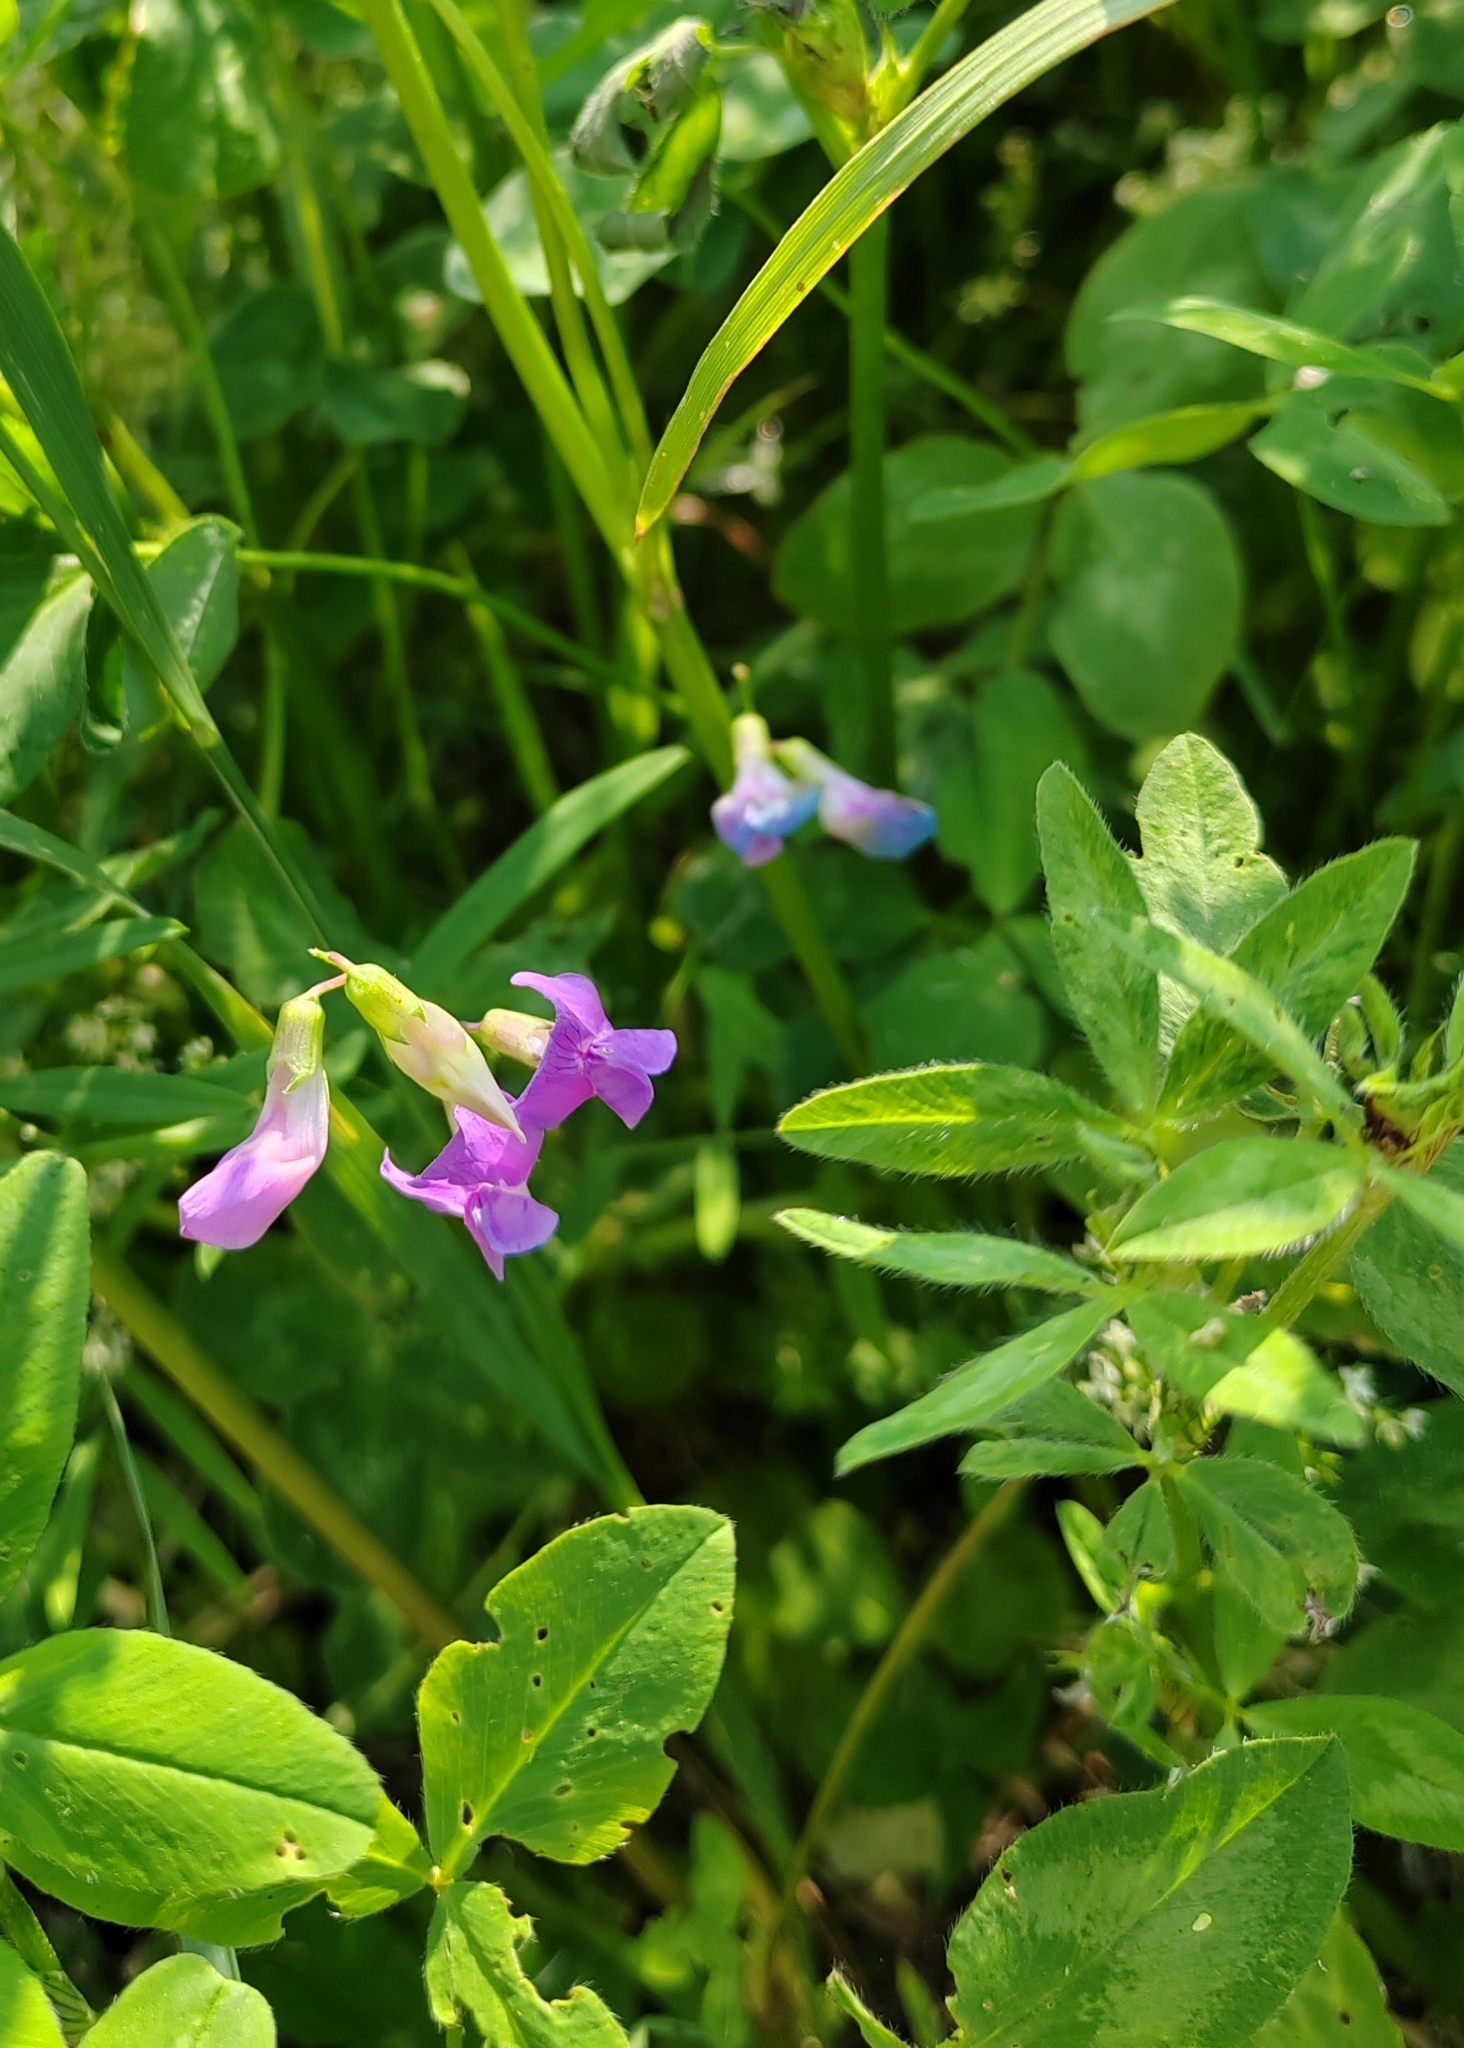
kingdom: Plantae
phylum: Tracheophyta
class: Magnoliopsida
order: Fabales
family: Fabaceae
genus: Lathyrus
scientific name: Lathyrus palustris
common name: Marsh pea
